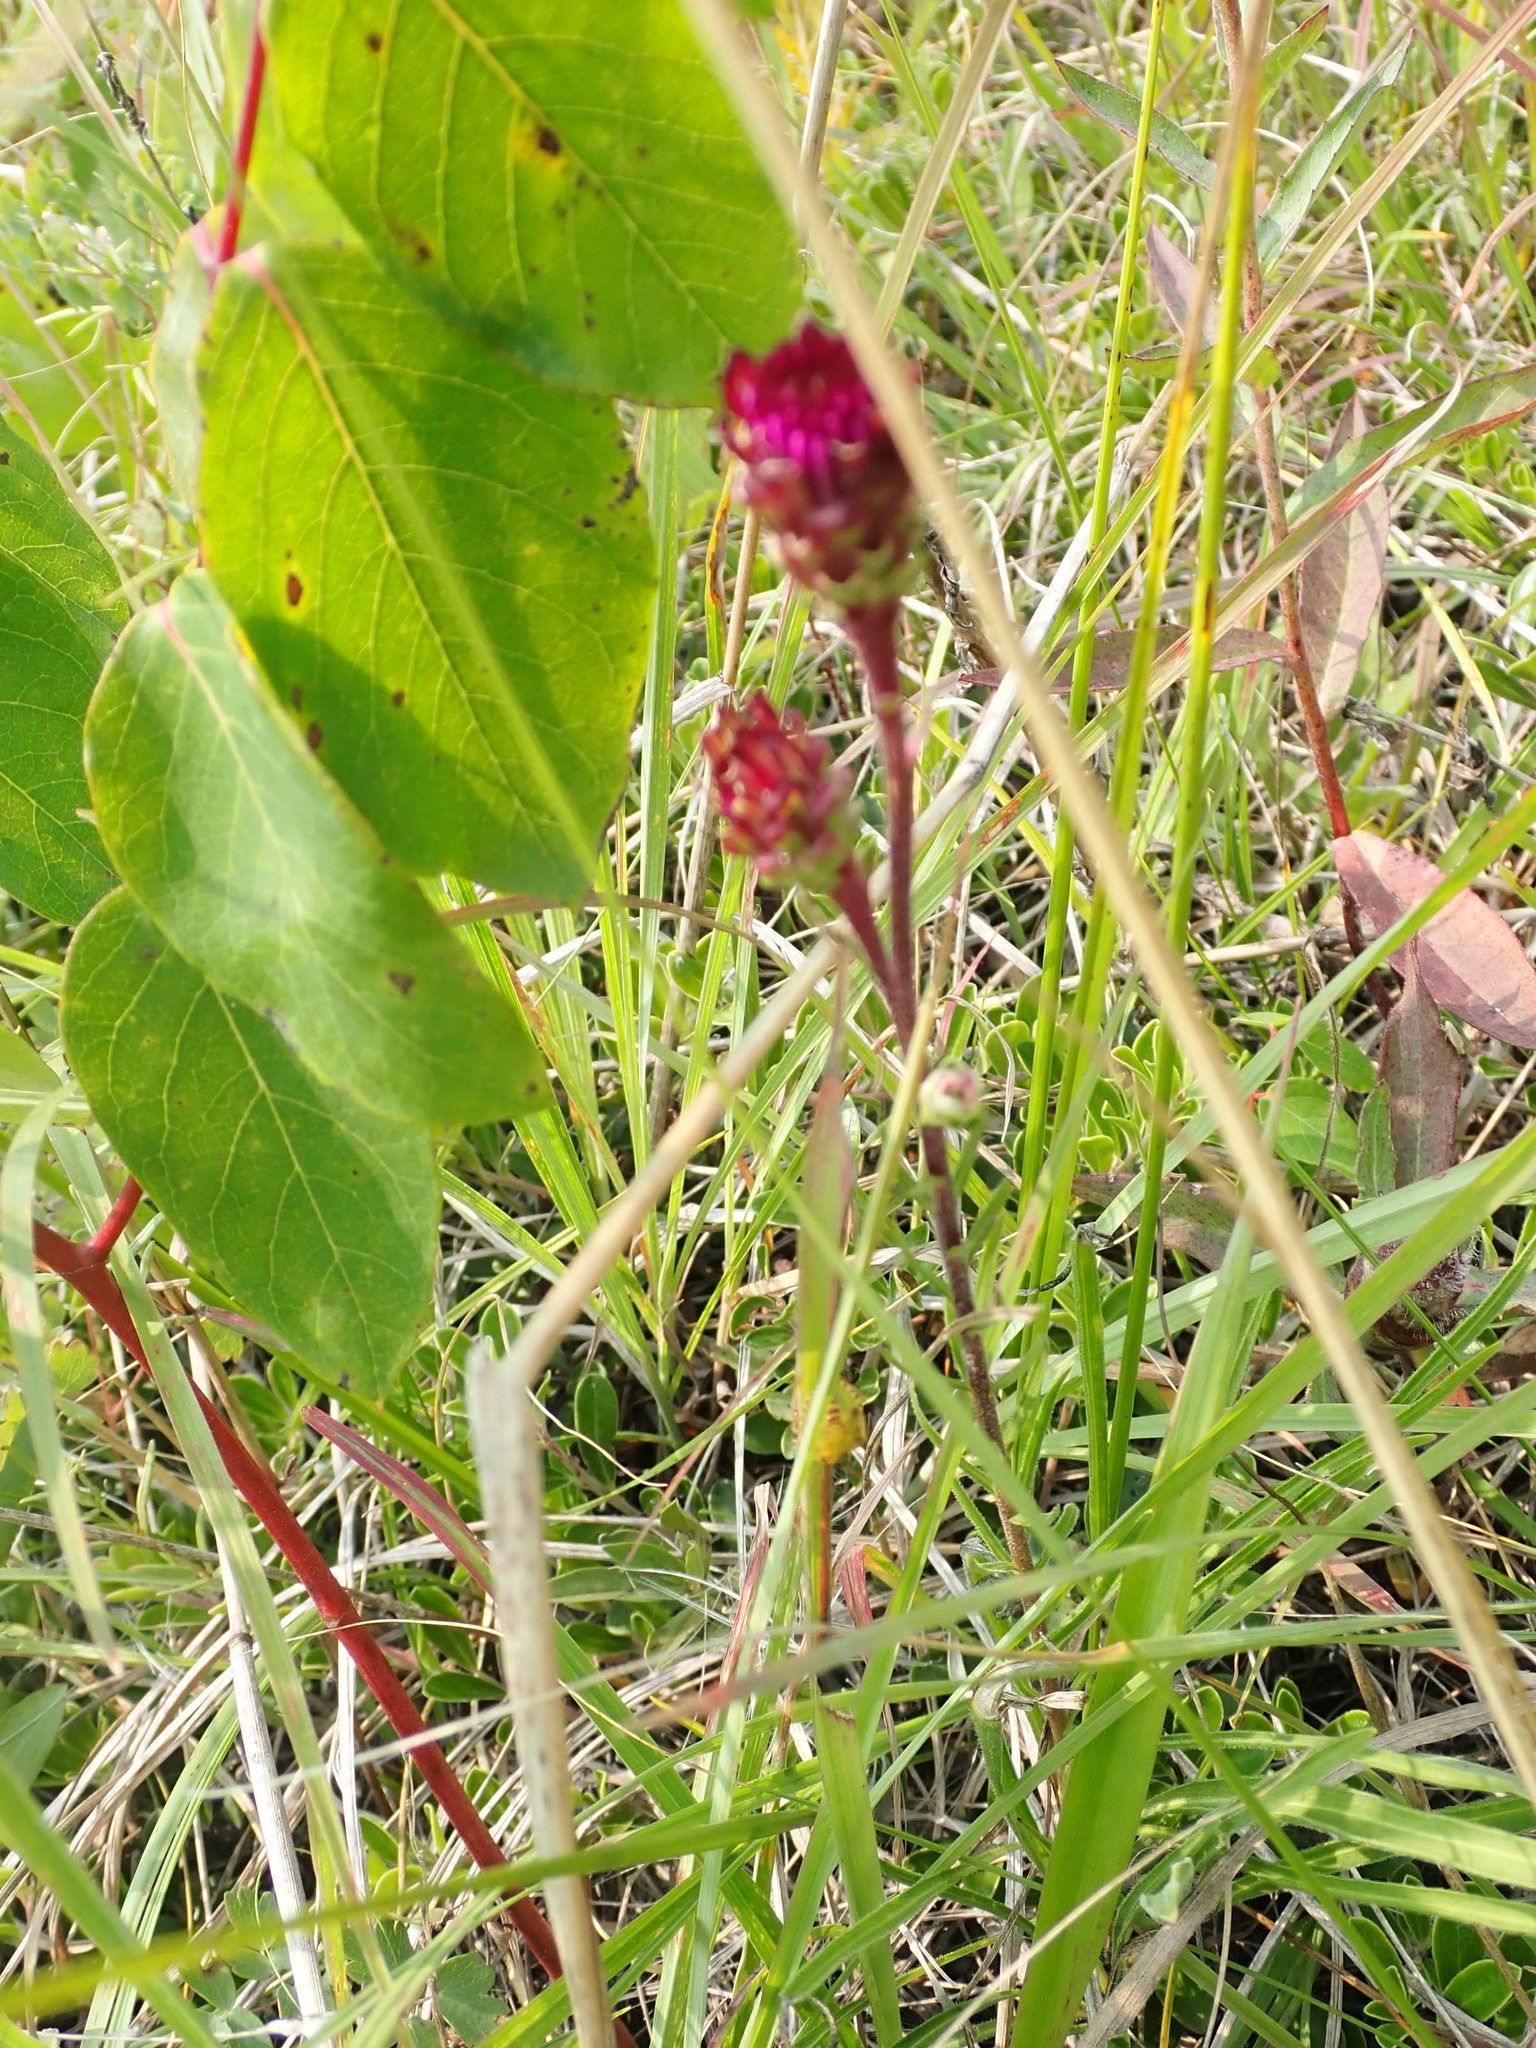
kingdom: Plantae
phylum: Tracheophyta
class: Magnoliopsida
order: Asterales
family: Asteraceae
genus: Liatris
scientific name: Liatris ligulistylis
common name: Northern plains gayfeather
